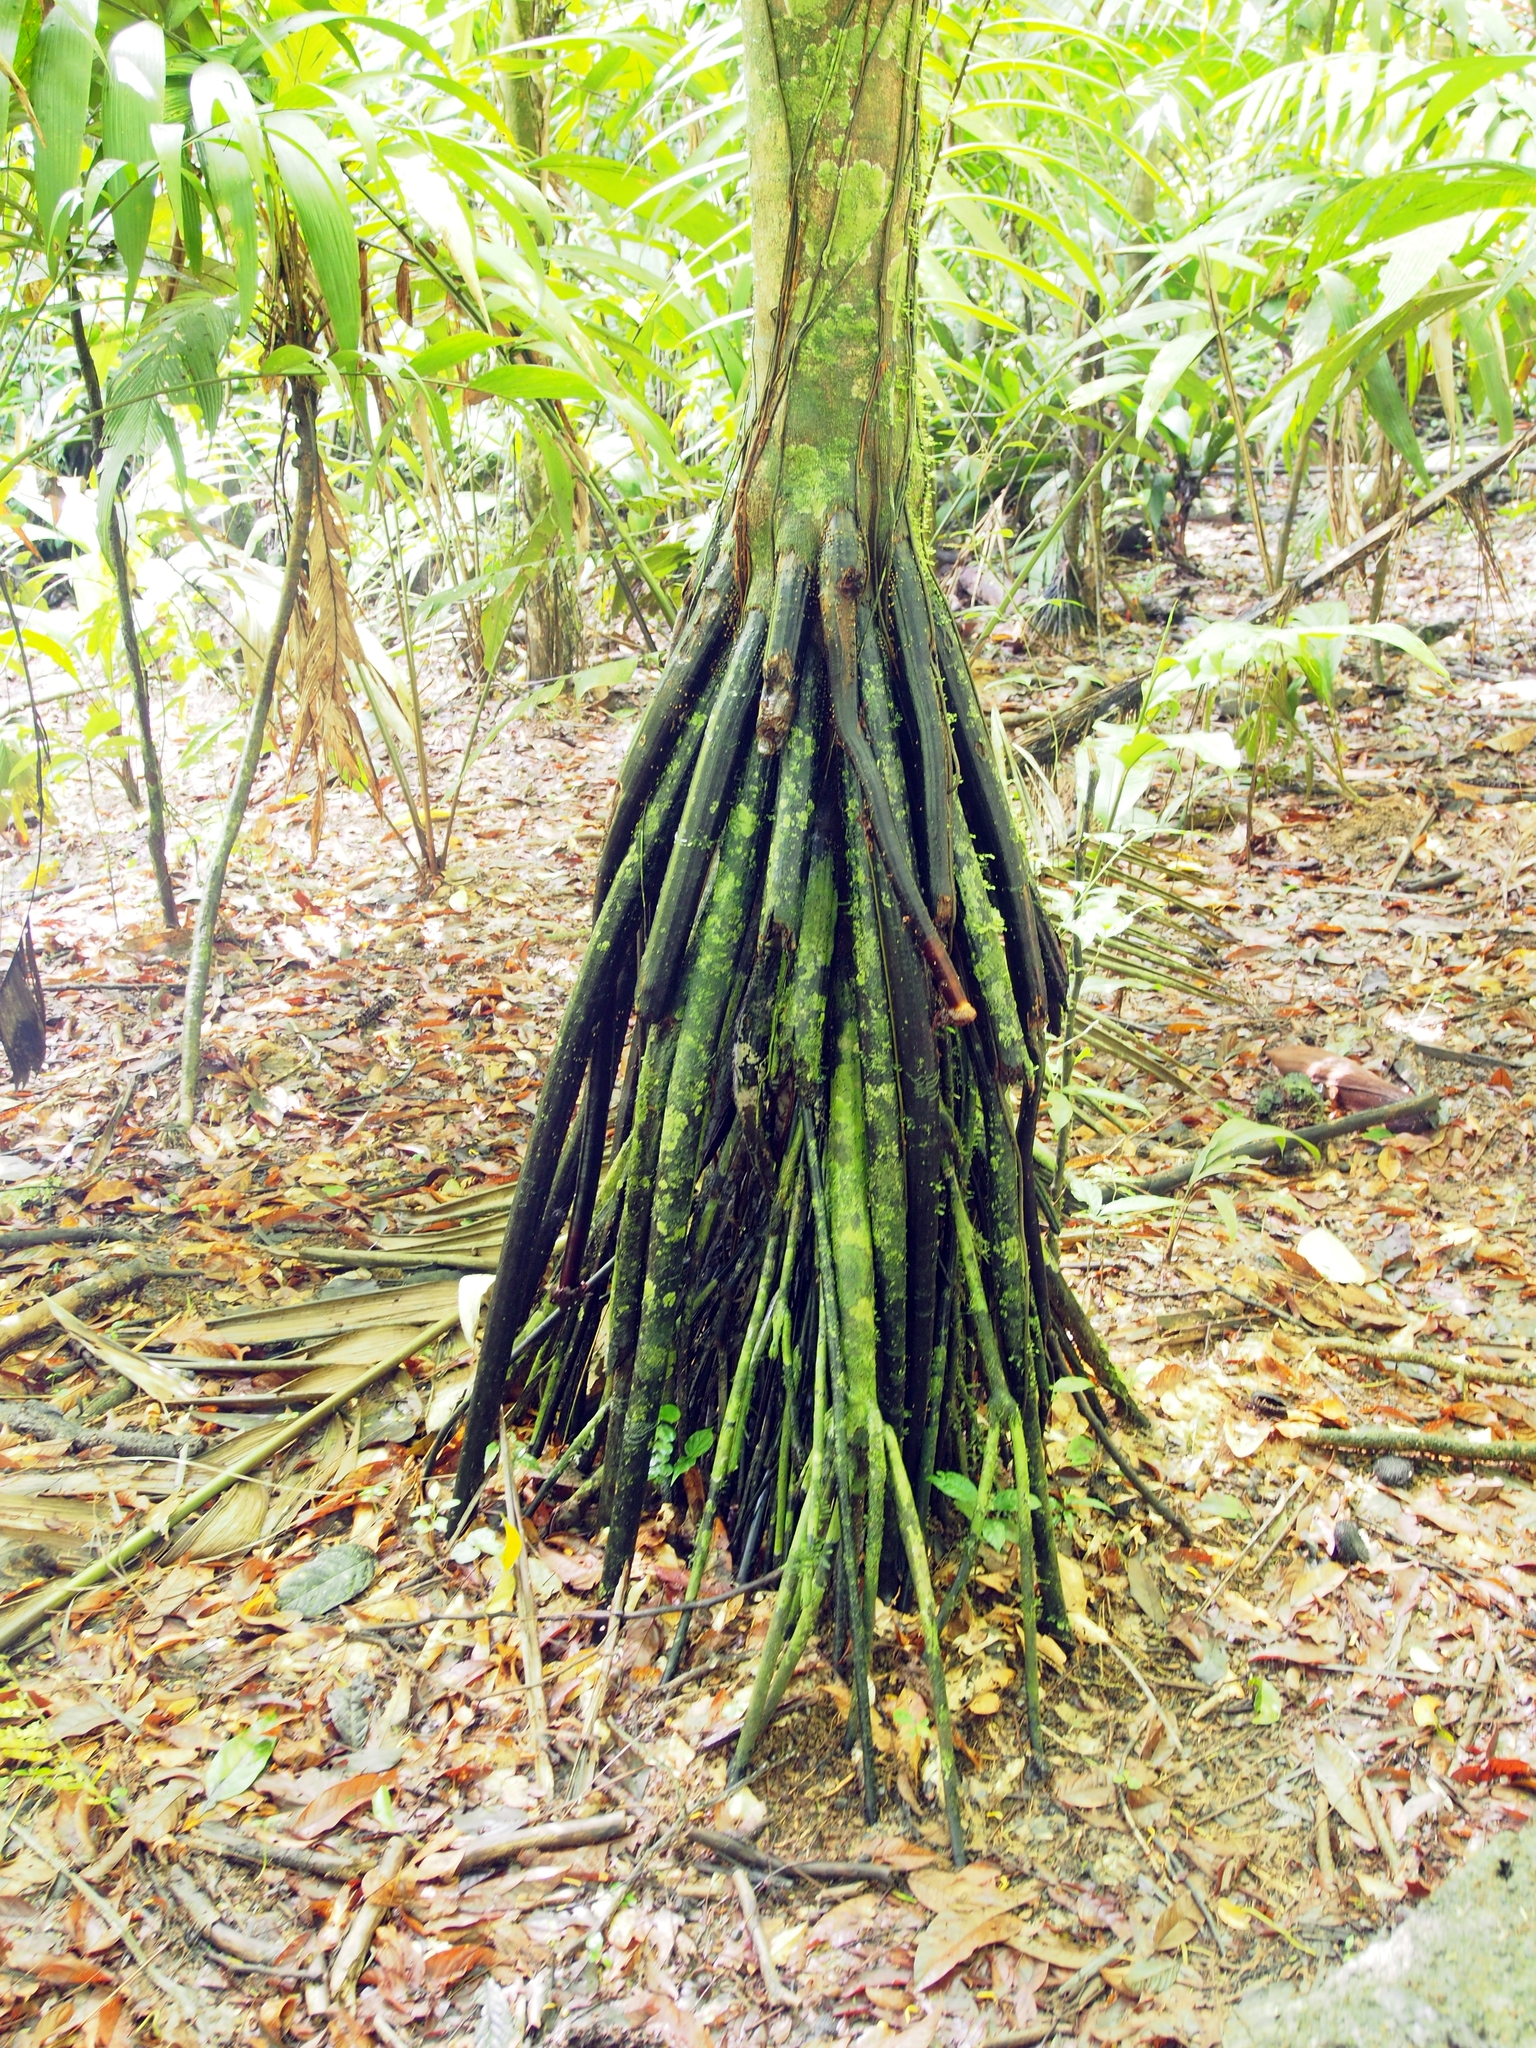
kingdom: Plantae
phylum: Tracheophyta
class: Liliopsida
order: Arecales
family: Arecaceae
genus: Iriartea
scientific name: Iriartea deltoidea
